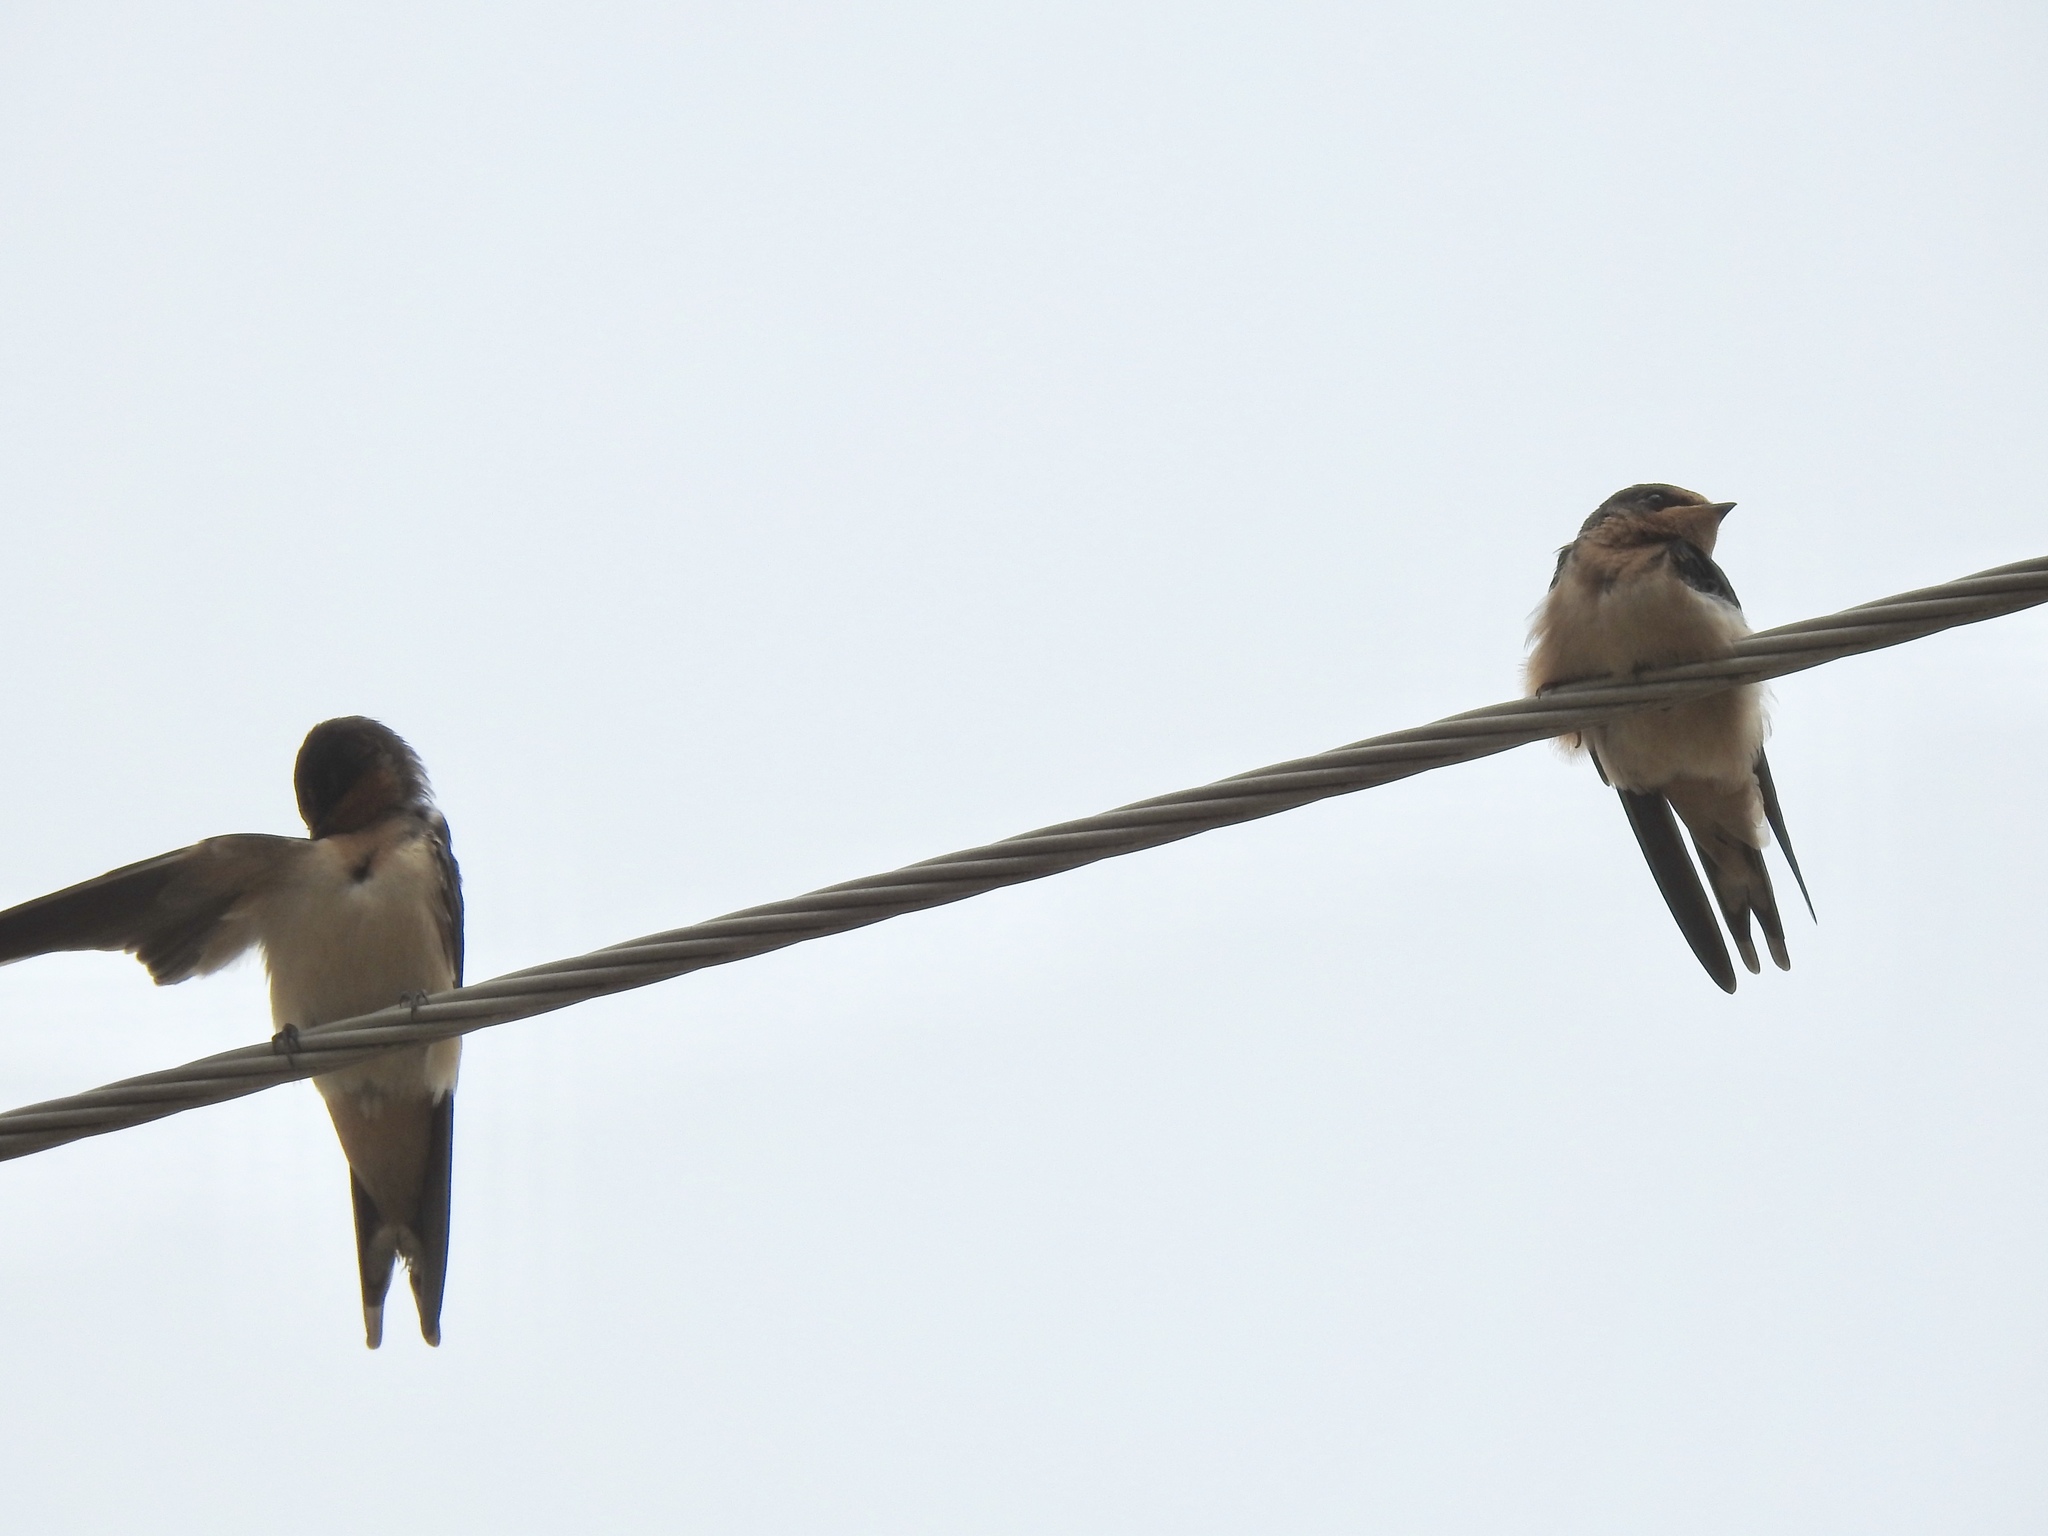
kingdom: Animalia
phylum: Chordata
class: Aves
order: Passeriformes
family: Hirundinidae
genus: Hirundo
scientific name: Hirundo rustica
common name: Barn swallow
